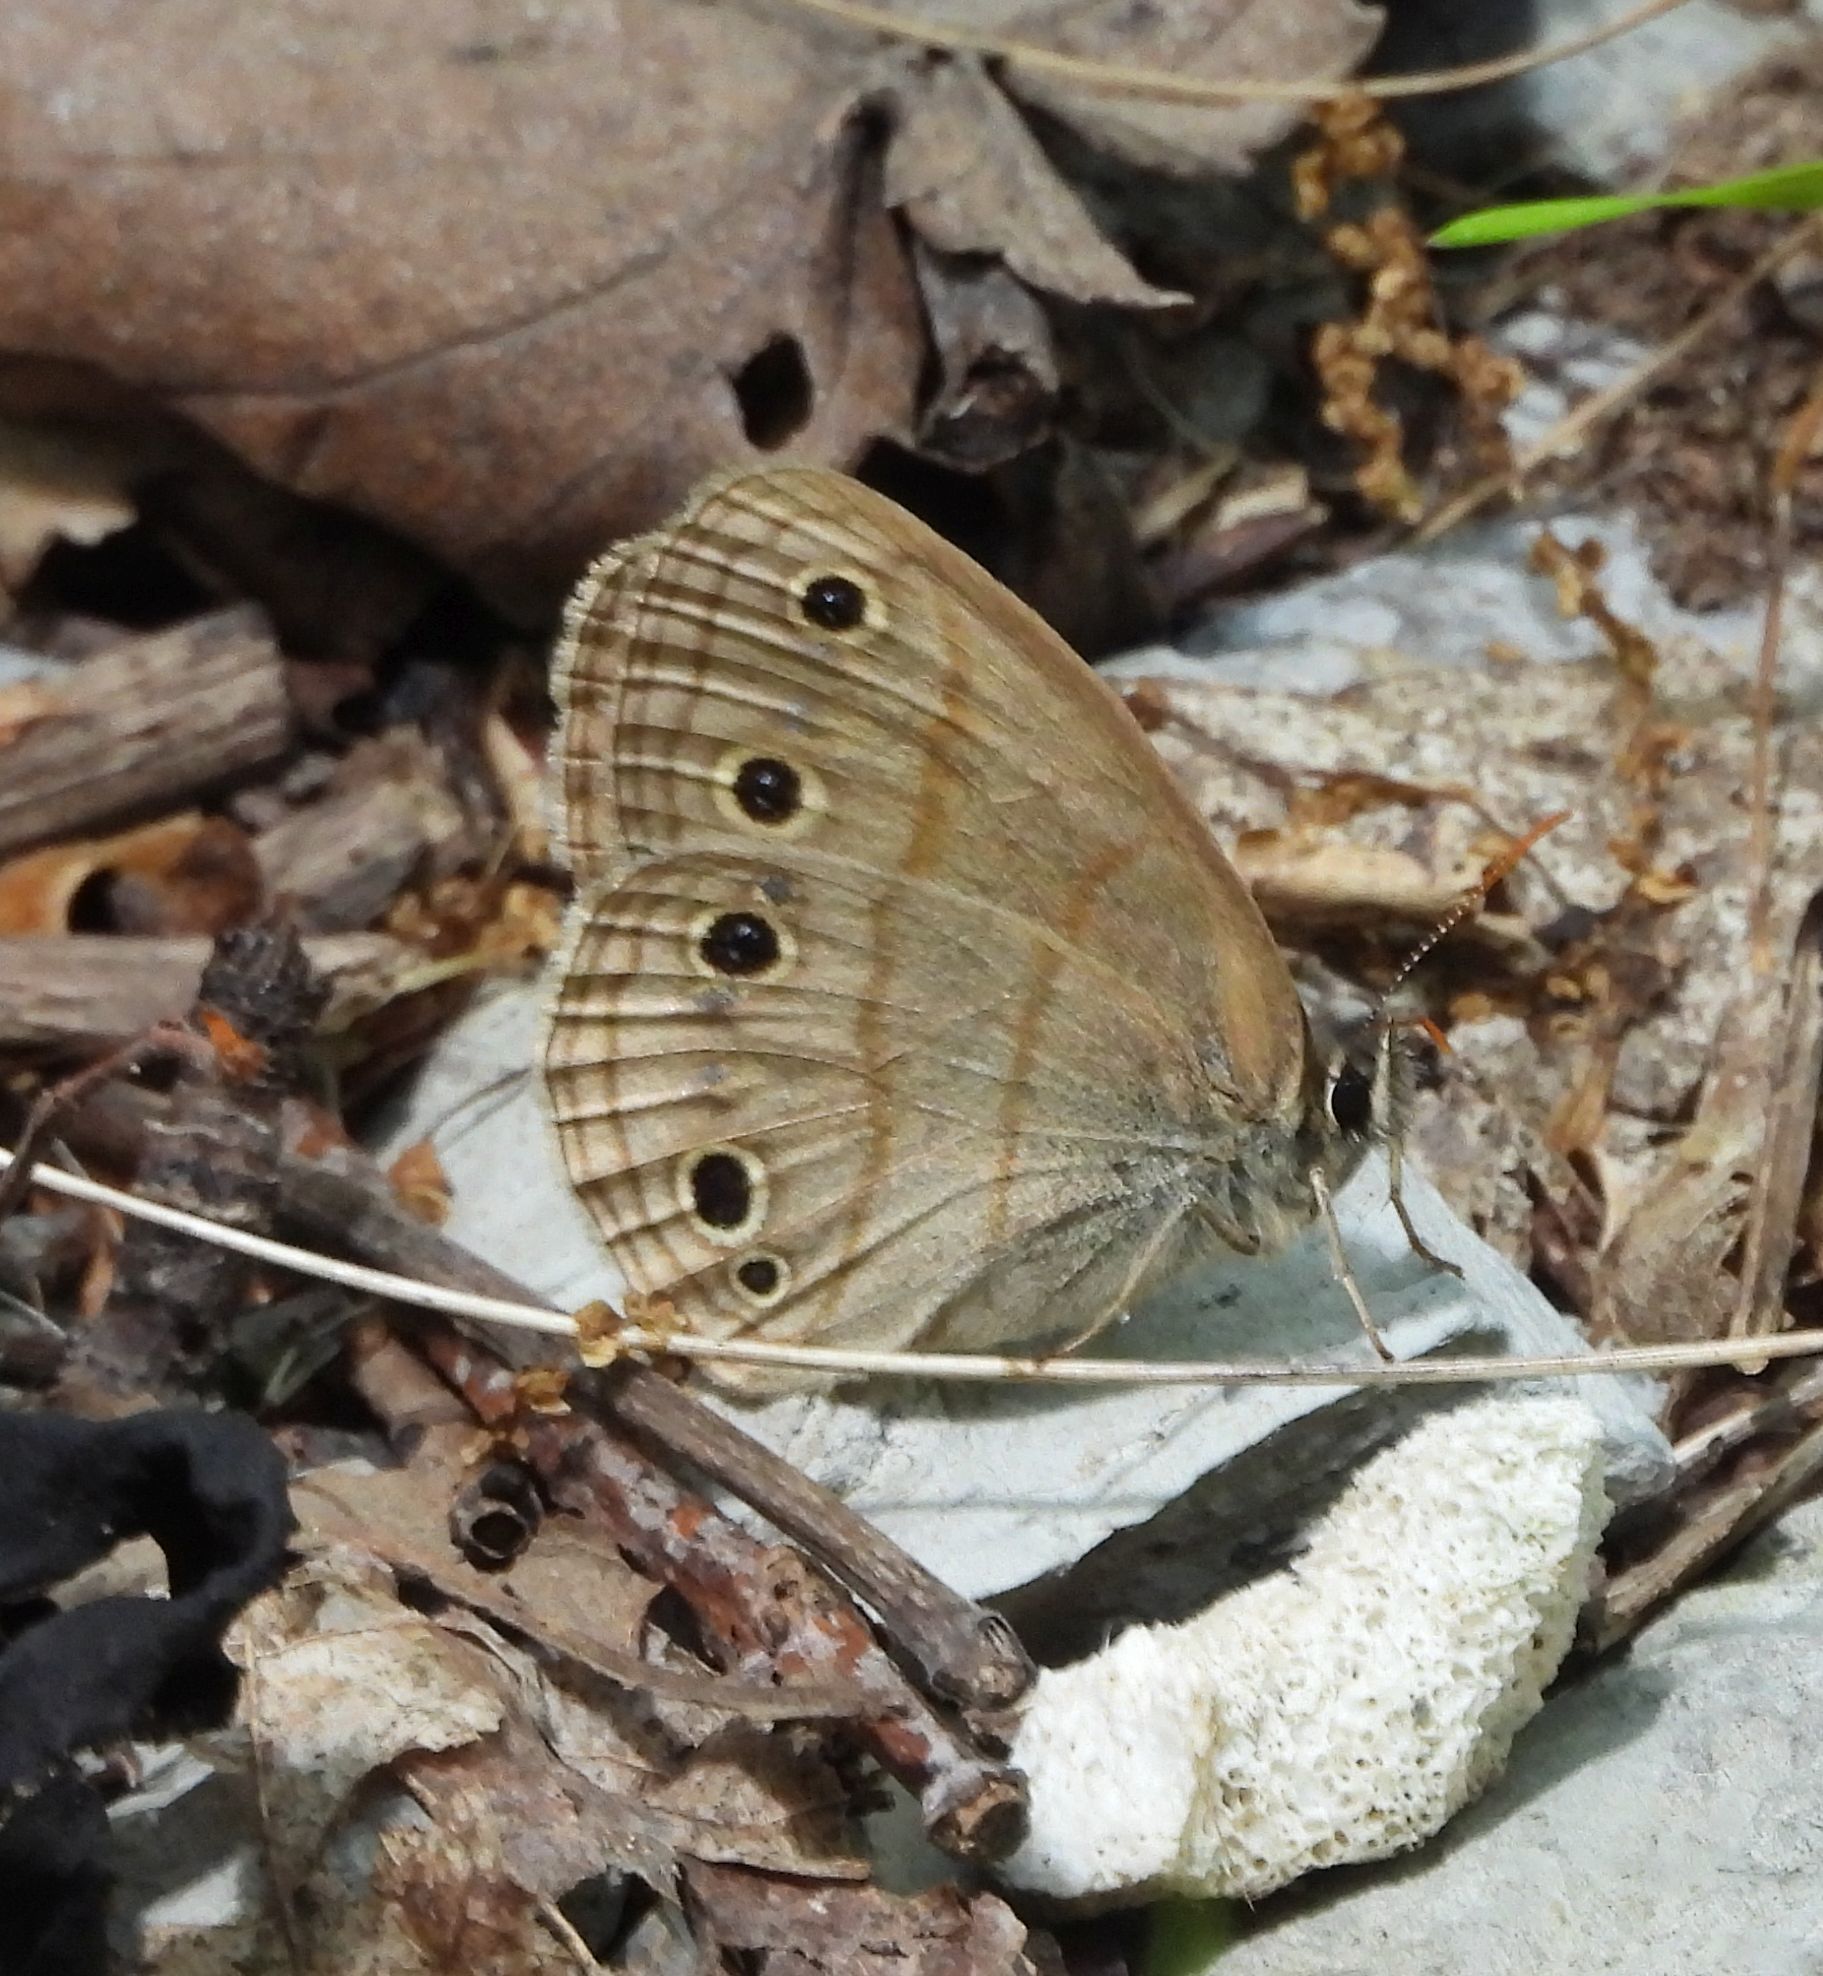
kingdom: Animalia
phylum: Arthropoda
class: Insecta
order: Lepidoptera
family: Nymphalidae
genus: Euptychia
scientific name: Euptychia cymela
